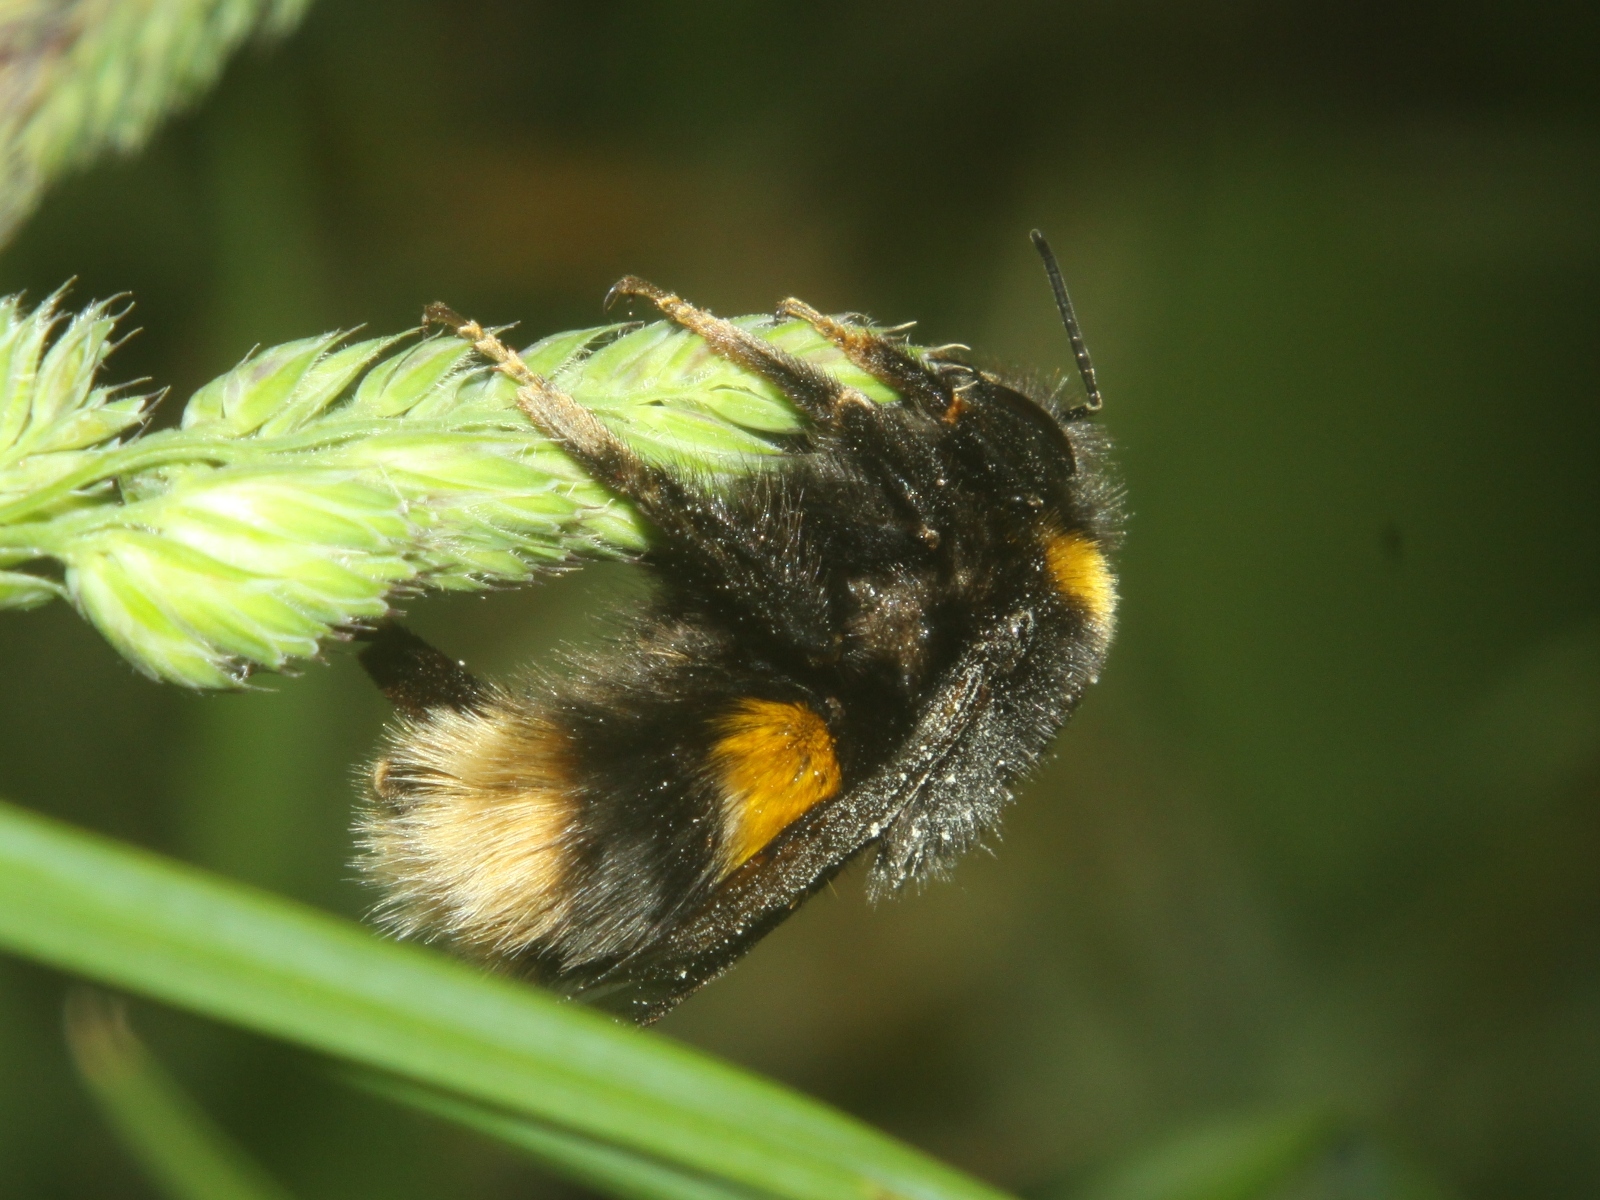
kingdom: Animalia
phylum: Arthropoda
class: Insecta
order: Hymenoptera
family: Apidae
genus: Bombus
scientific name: Bombus terrestris
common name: Buff-tailed bumblebee
